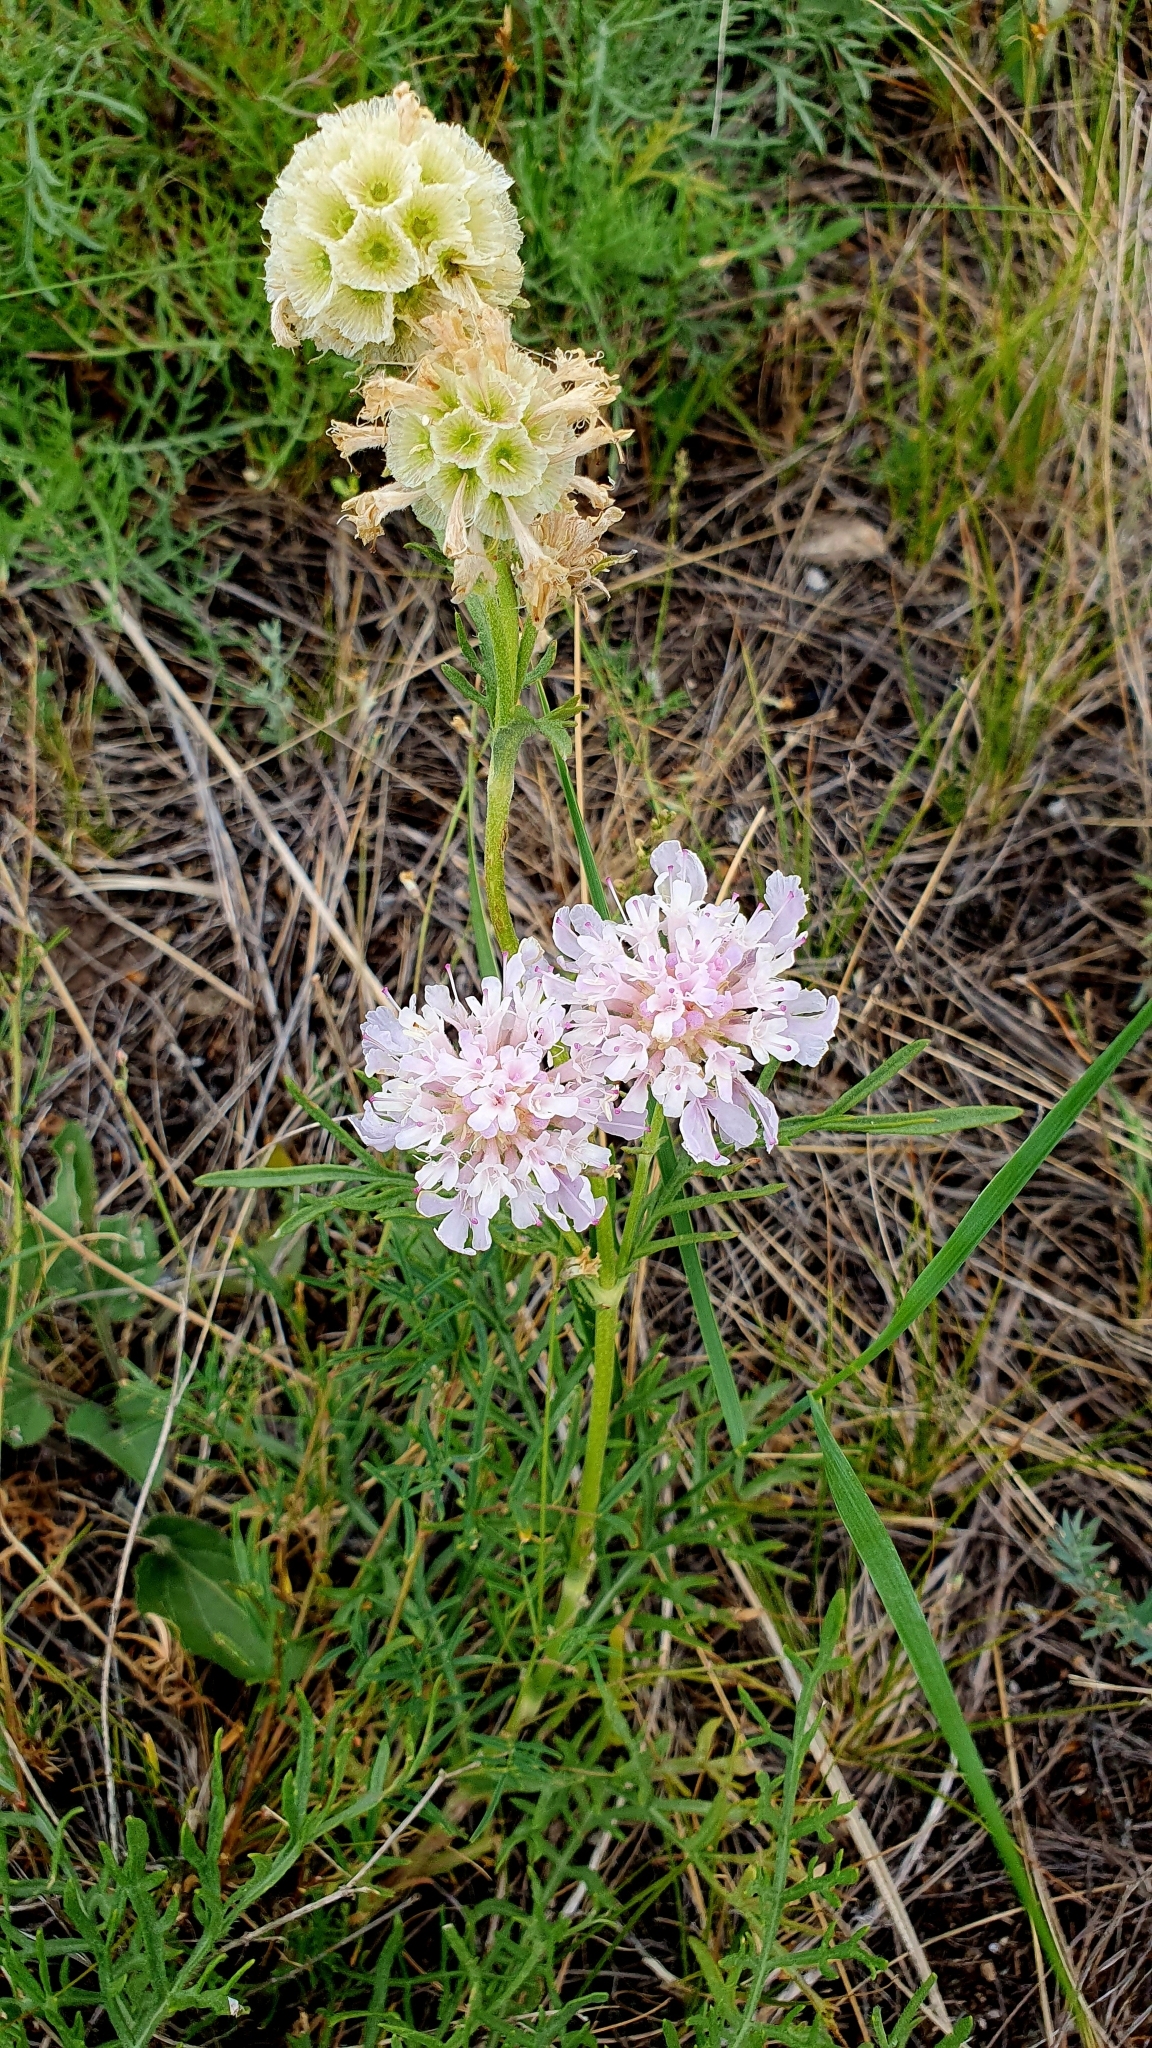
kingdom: Plantae
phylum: Tracheophyta
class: Magnoliopsida
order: Dipsacales
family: Caprifoliaceae
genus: Lomelosia
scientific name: Lomelosia isetensis
